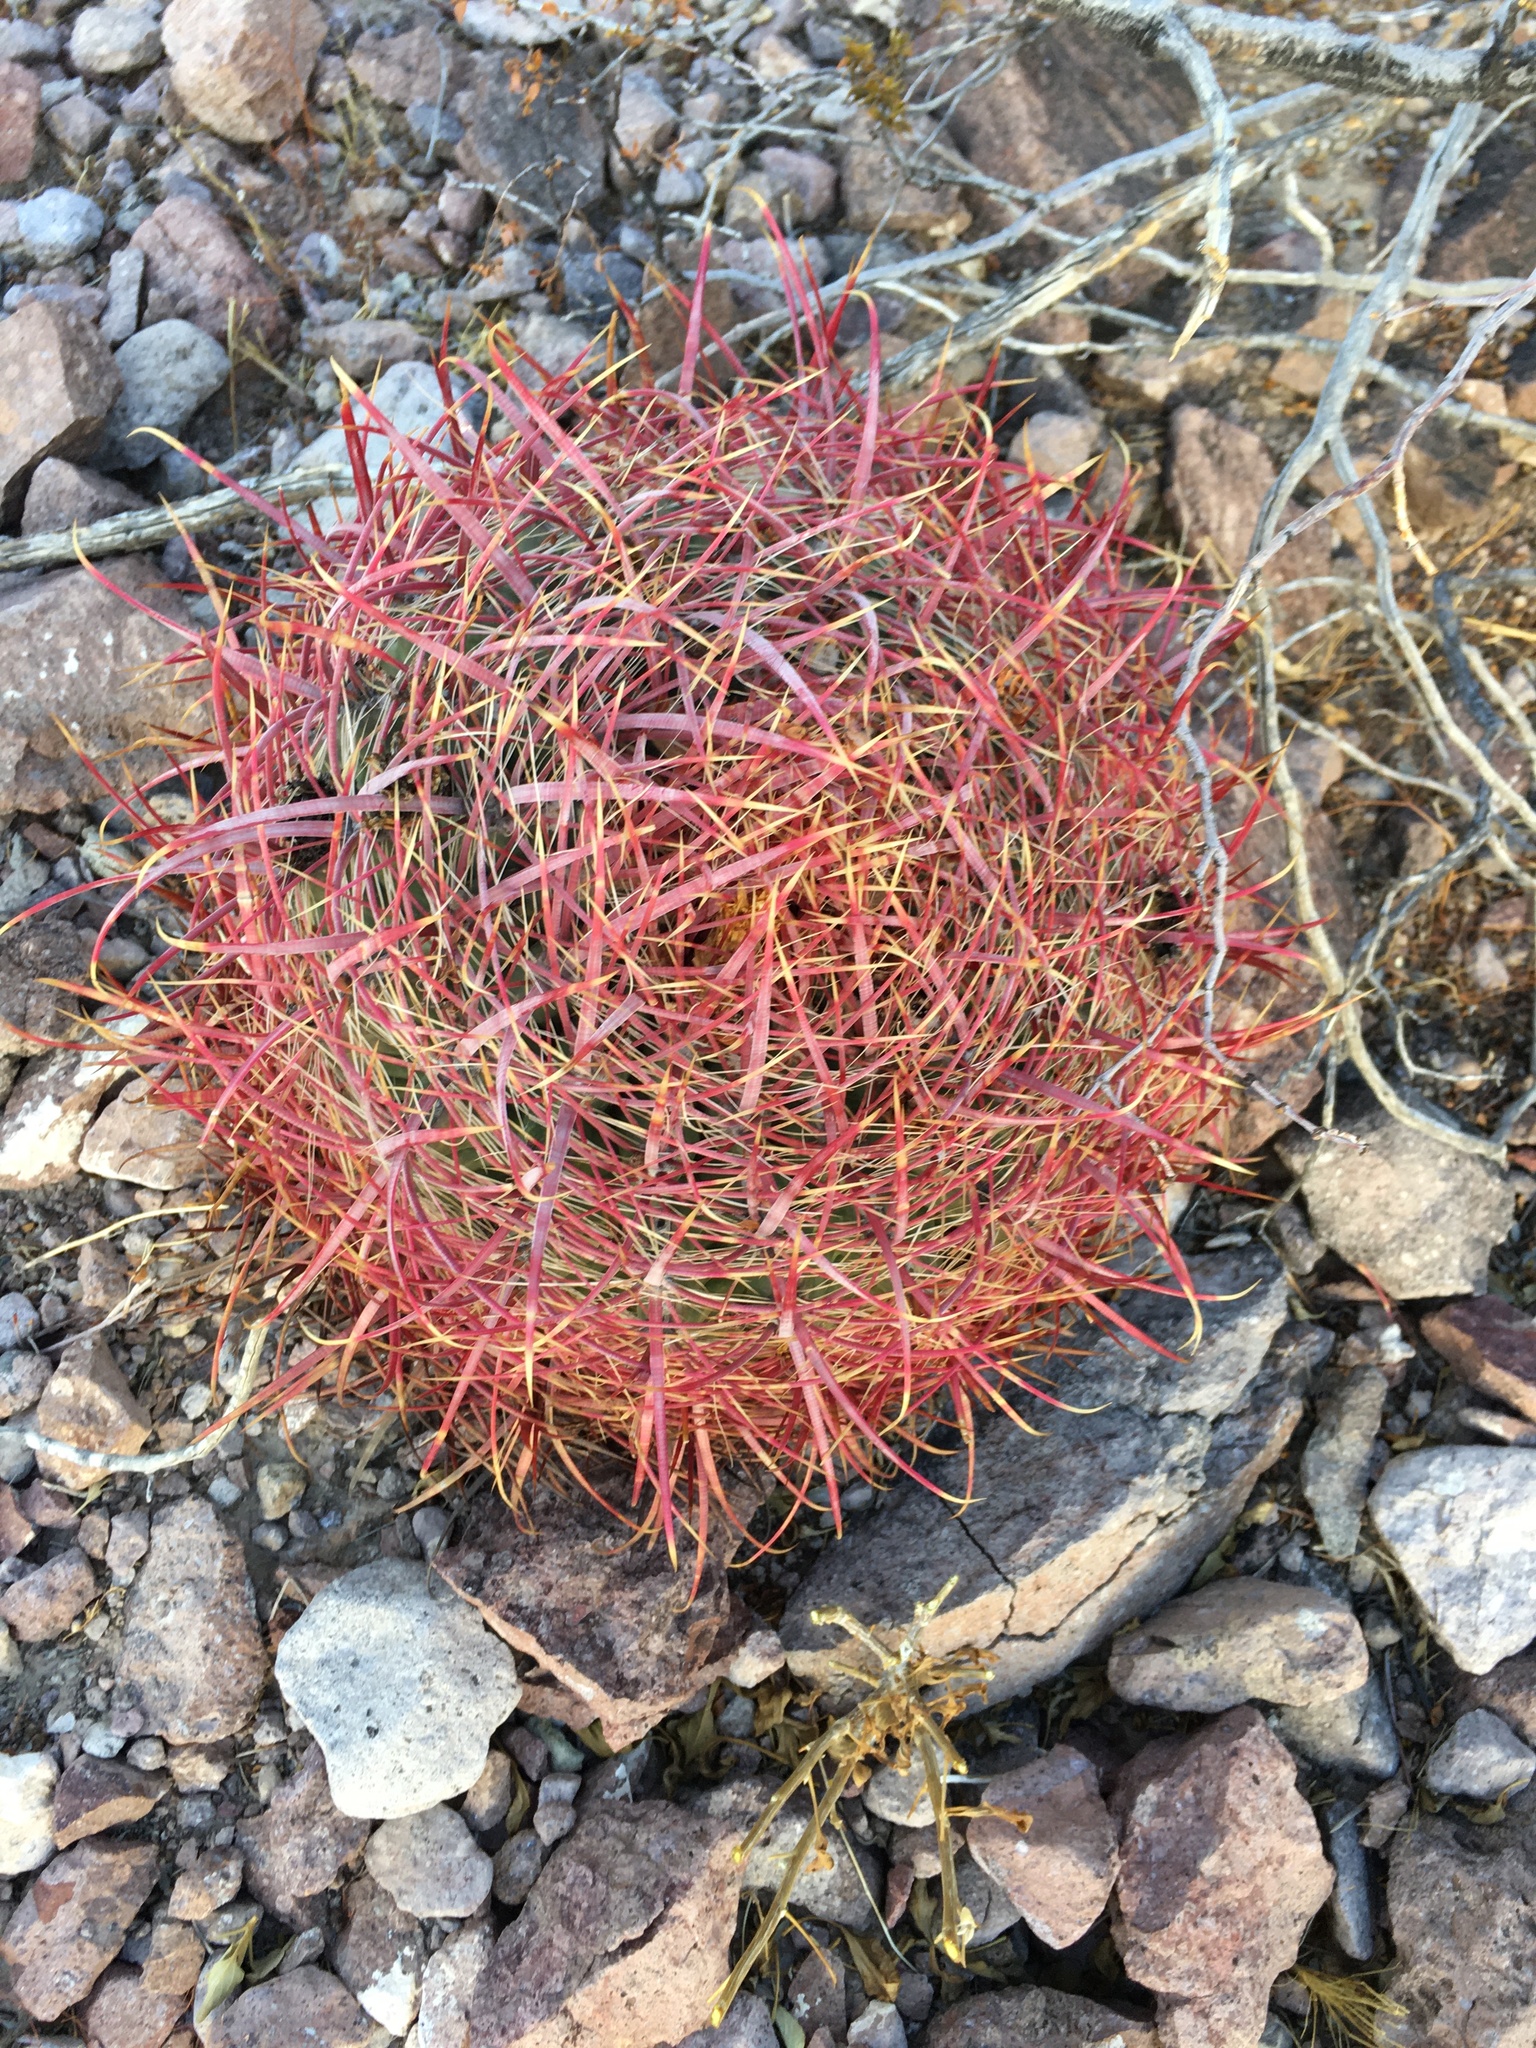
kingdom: Plantae
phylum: Tracheophyta
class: Magnoliopsida
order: Caryophyllales
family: Cactaceae
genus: Ferocactus
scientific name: Ferocactus cylindraceus
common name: California barrel cactus
